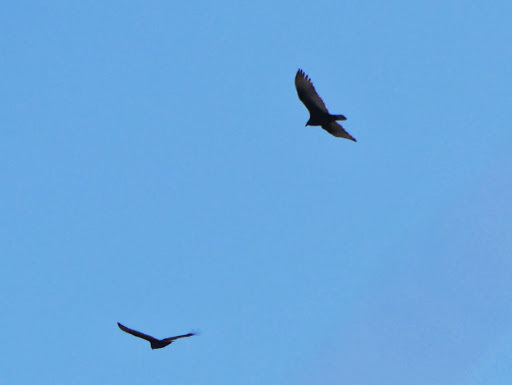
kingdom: Animalia
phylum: Chordata
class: Aves
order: Accipitriformes
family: Cathartidae
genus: Cathartes
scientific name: Cathartes aura
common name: Turkey vulture
